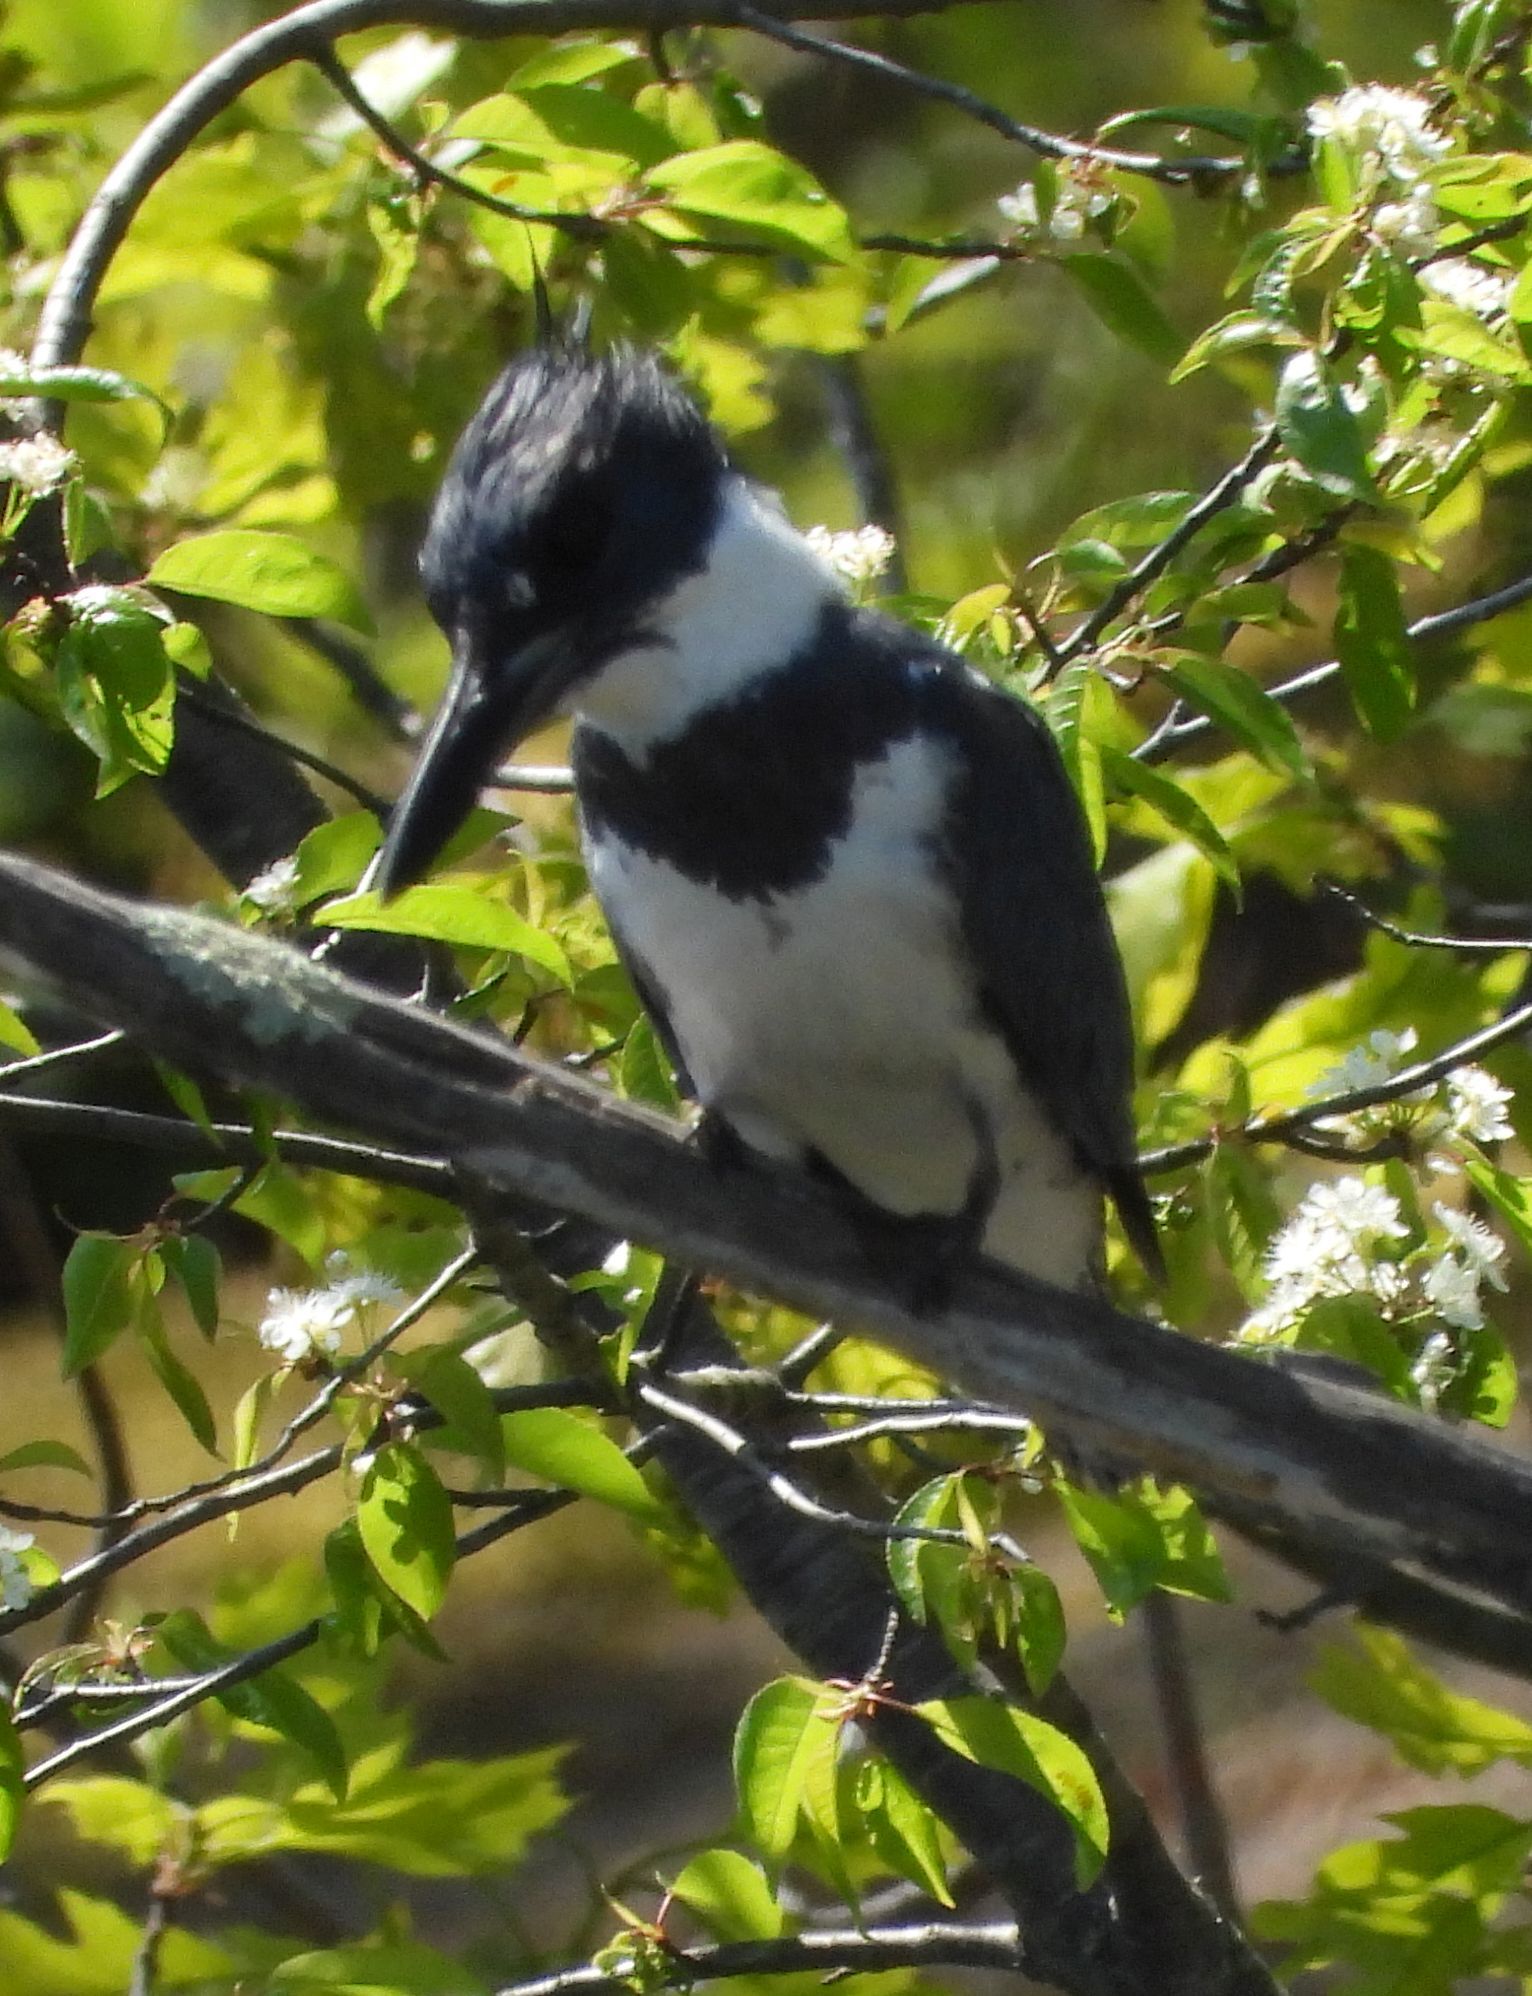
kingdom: Animalia
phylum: Chordata
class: Aves
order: Coraciiformes
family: Alcedinidae
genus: Megaceryle
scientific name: Megaceryle alcyon
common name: Belted kingfisher
